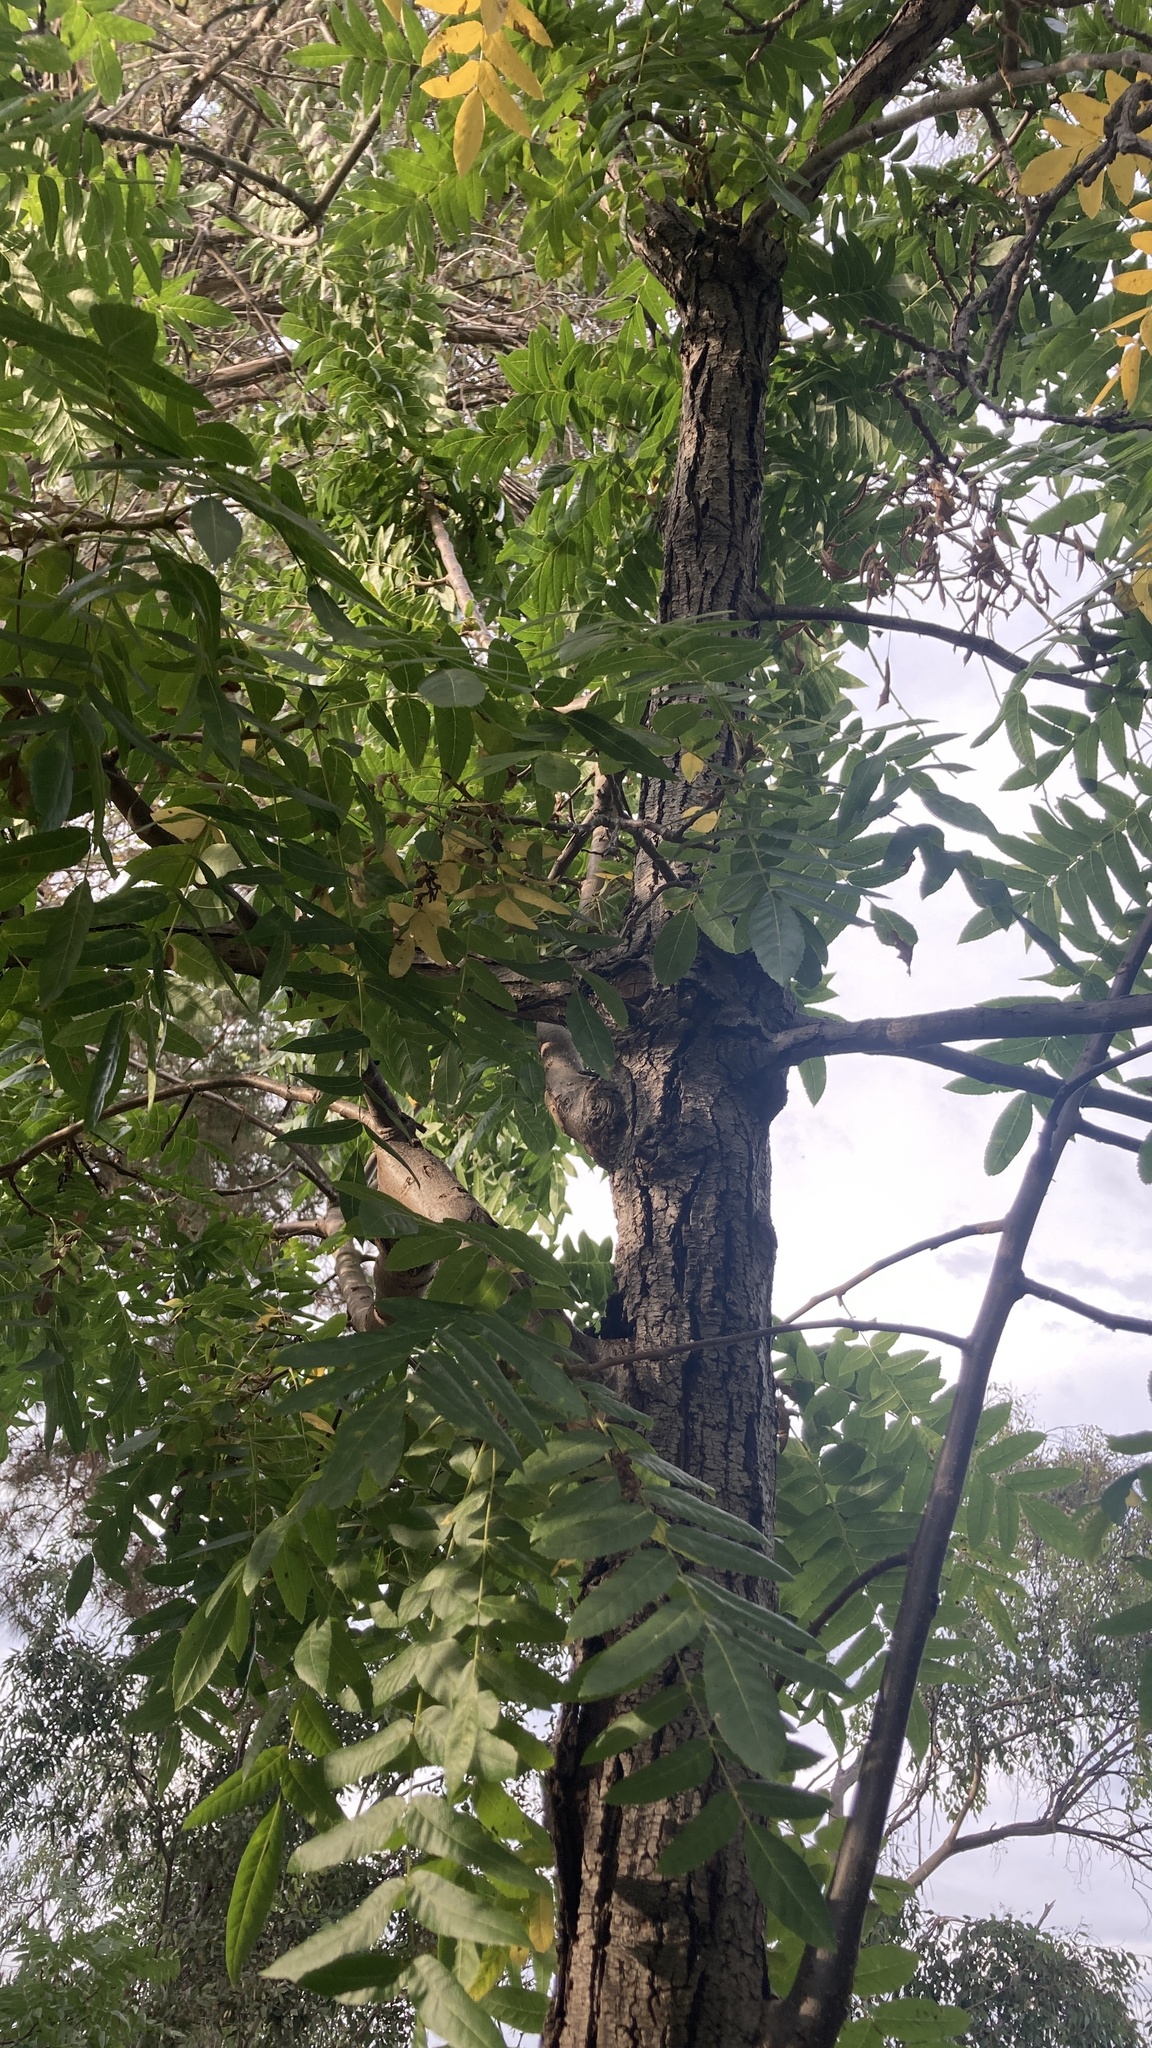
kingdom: Plantae
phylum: Tracheophyta
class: Magnoliopsida
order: Fagales
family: Juglandaceae
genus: Juglans
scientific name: Juglans californica
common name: Southern california black walnut
